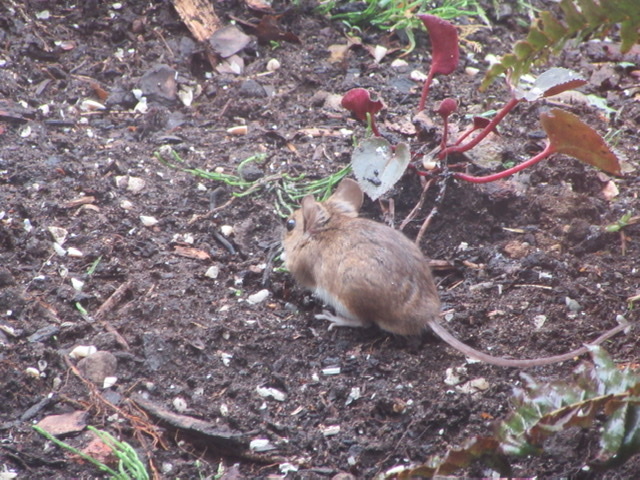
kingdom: Animalia
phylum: Chordata
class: Mammalia
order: Rodentia
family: Muridae
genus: Apodemus
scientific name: Apodemus sylvaticus
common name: Wood mouse
